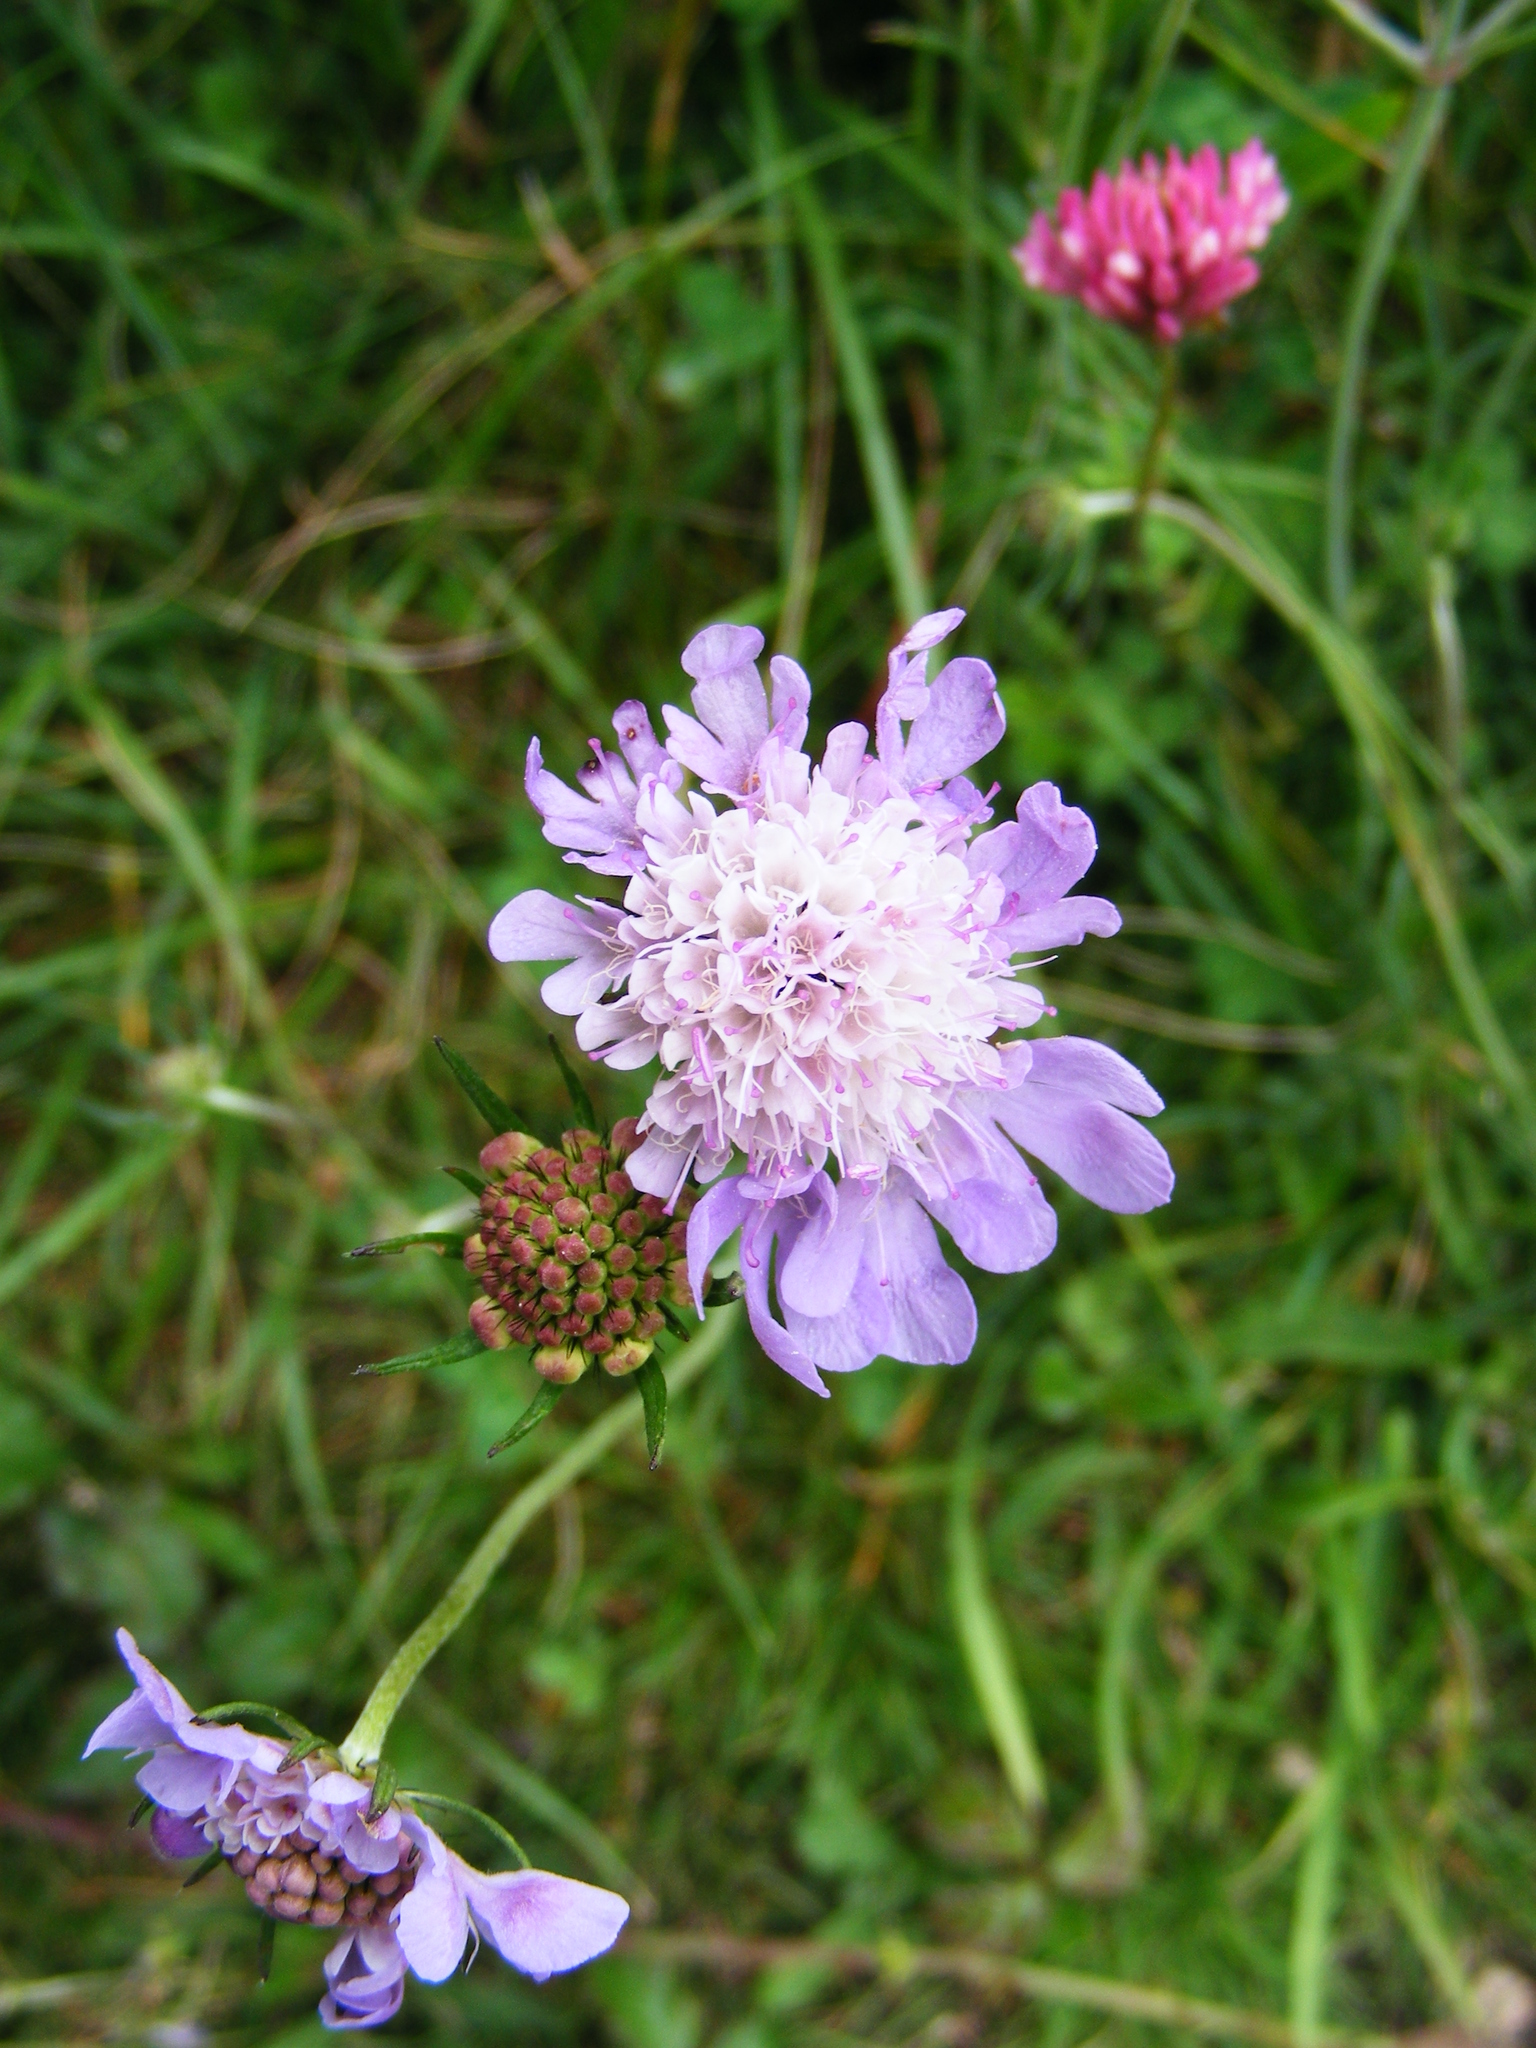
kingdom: Plantae
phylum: Tracheophyta
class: Magnoliopsida
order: Dipsacales
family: Caprifoliaceae
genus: Scabiosa
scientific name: Scabiosa columbaria
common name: Small scabious
